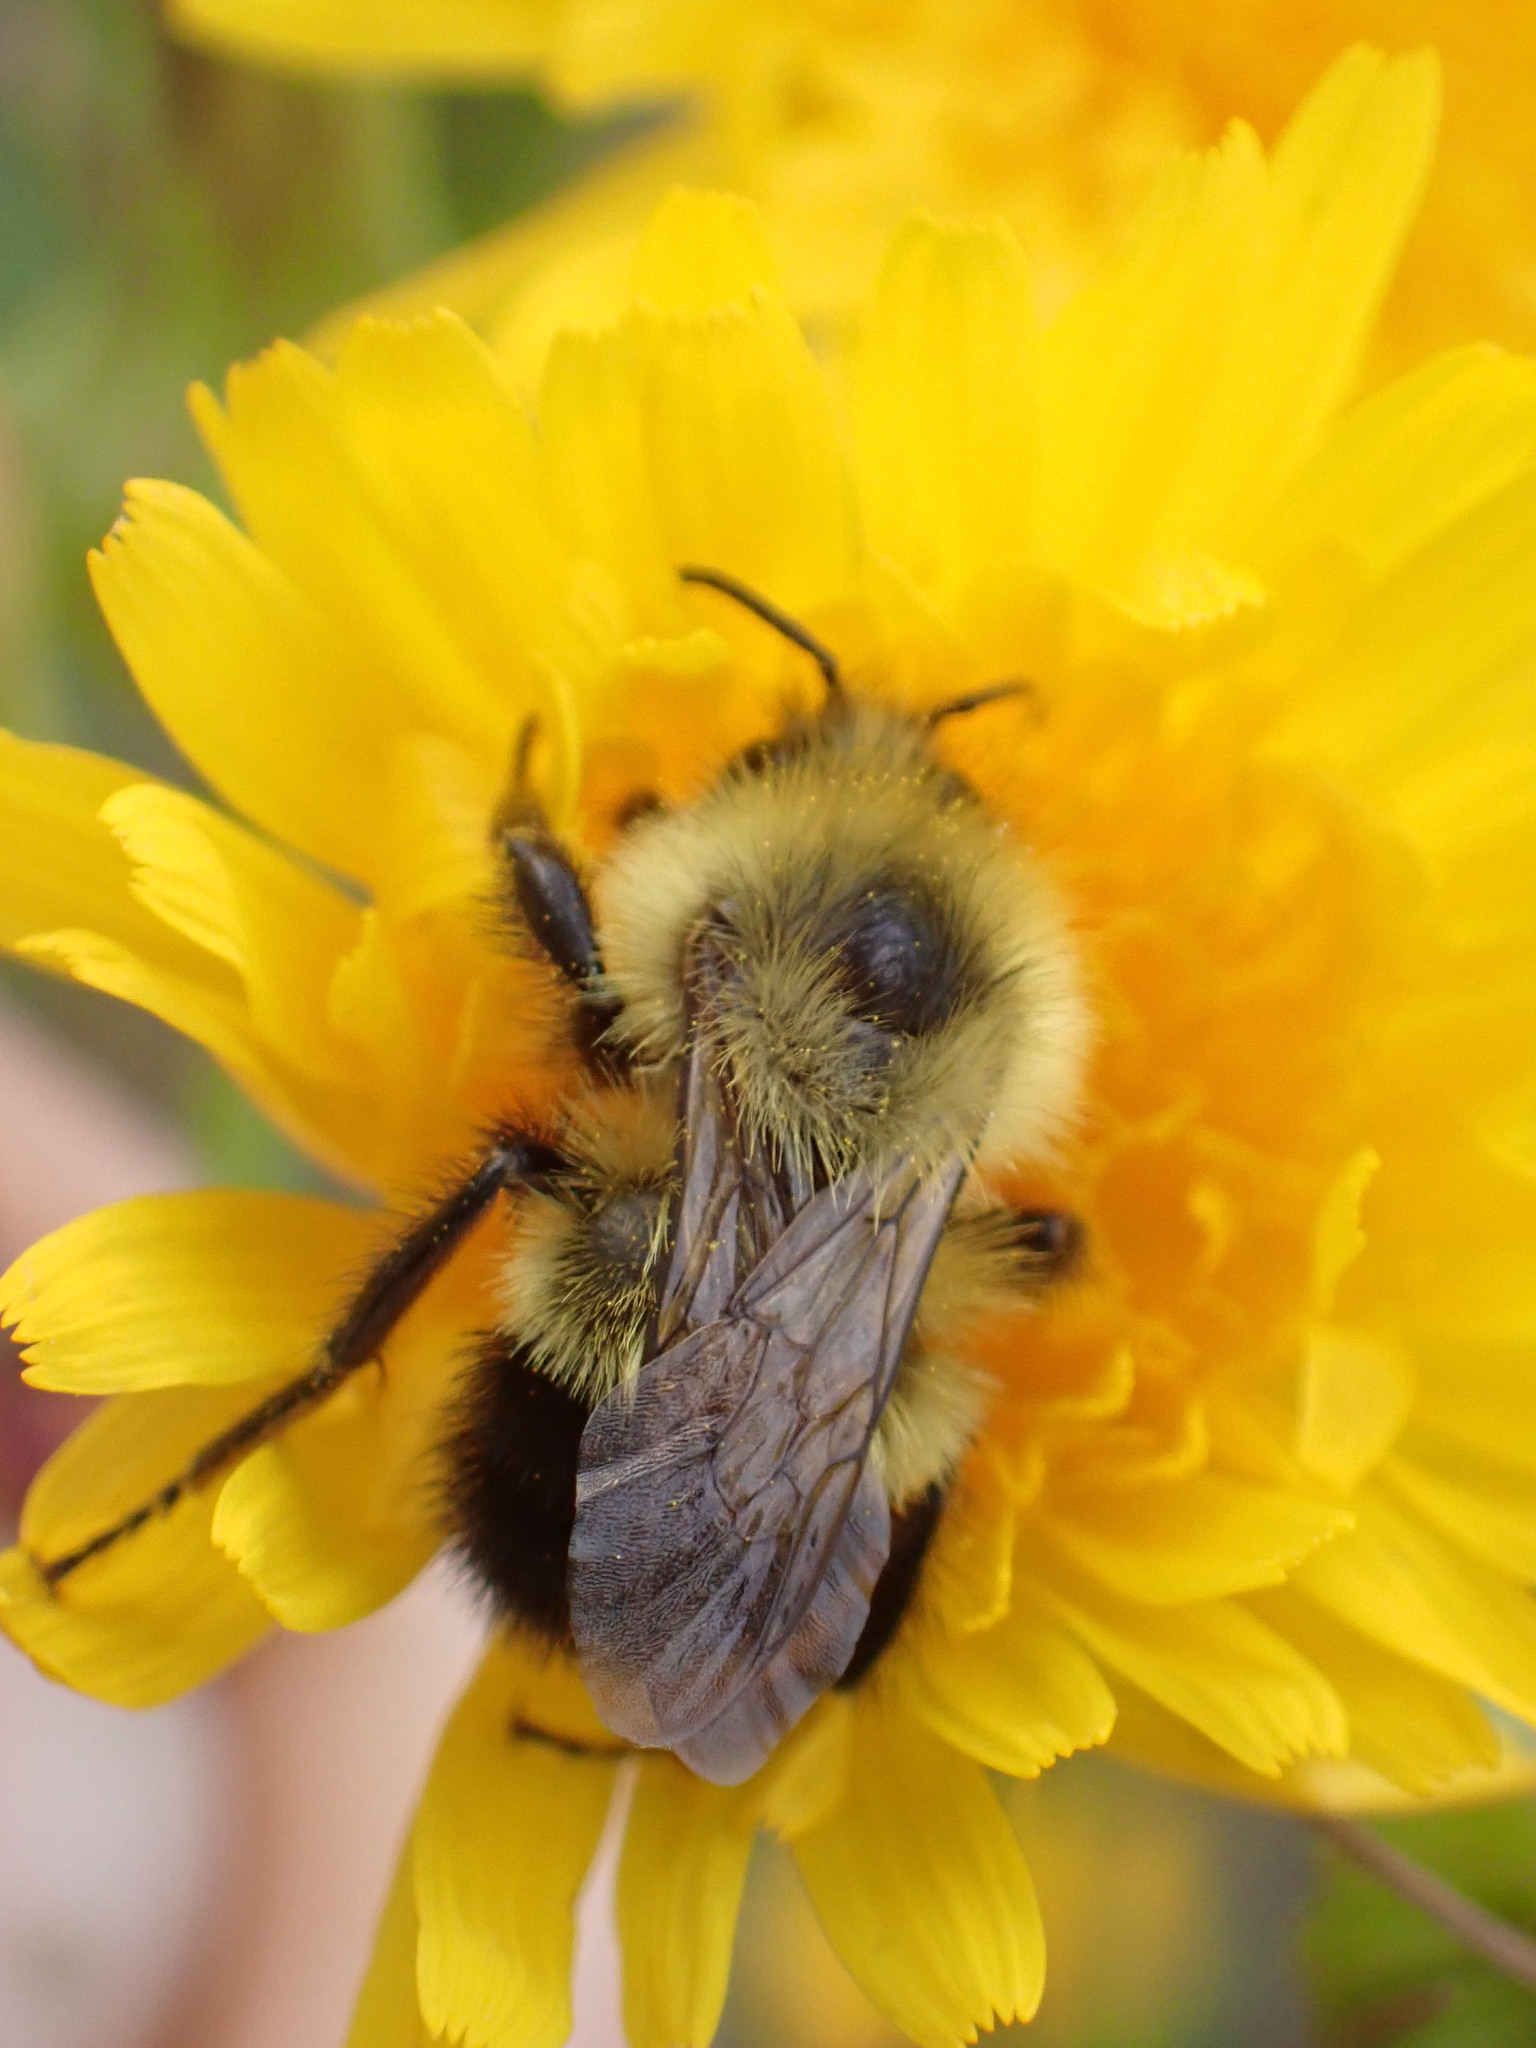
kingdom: Animalia
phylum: Arthropoda
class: Insecta
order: Hymenoptera
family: Apidae
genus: Bombus
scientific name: Bombus vagans
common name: Half-black bumble bee
